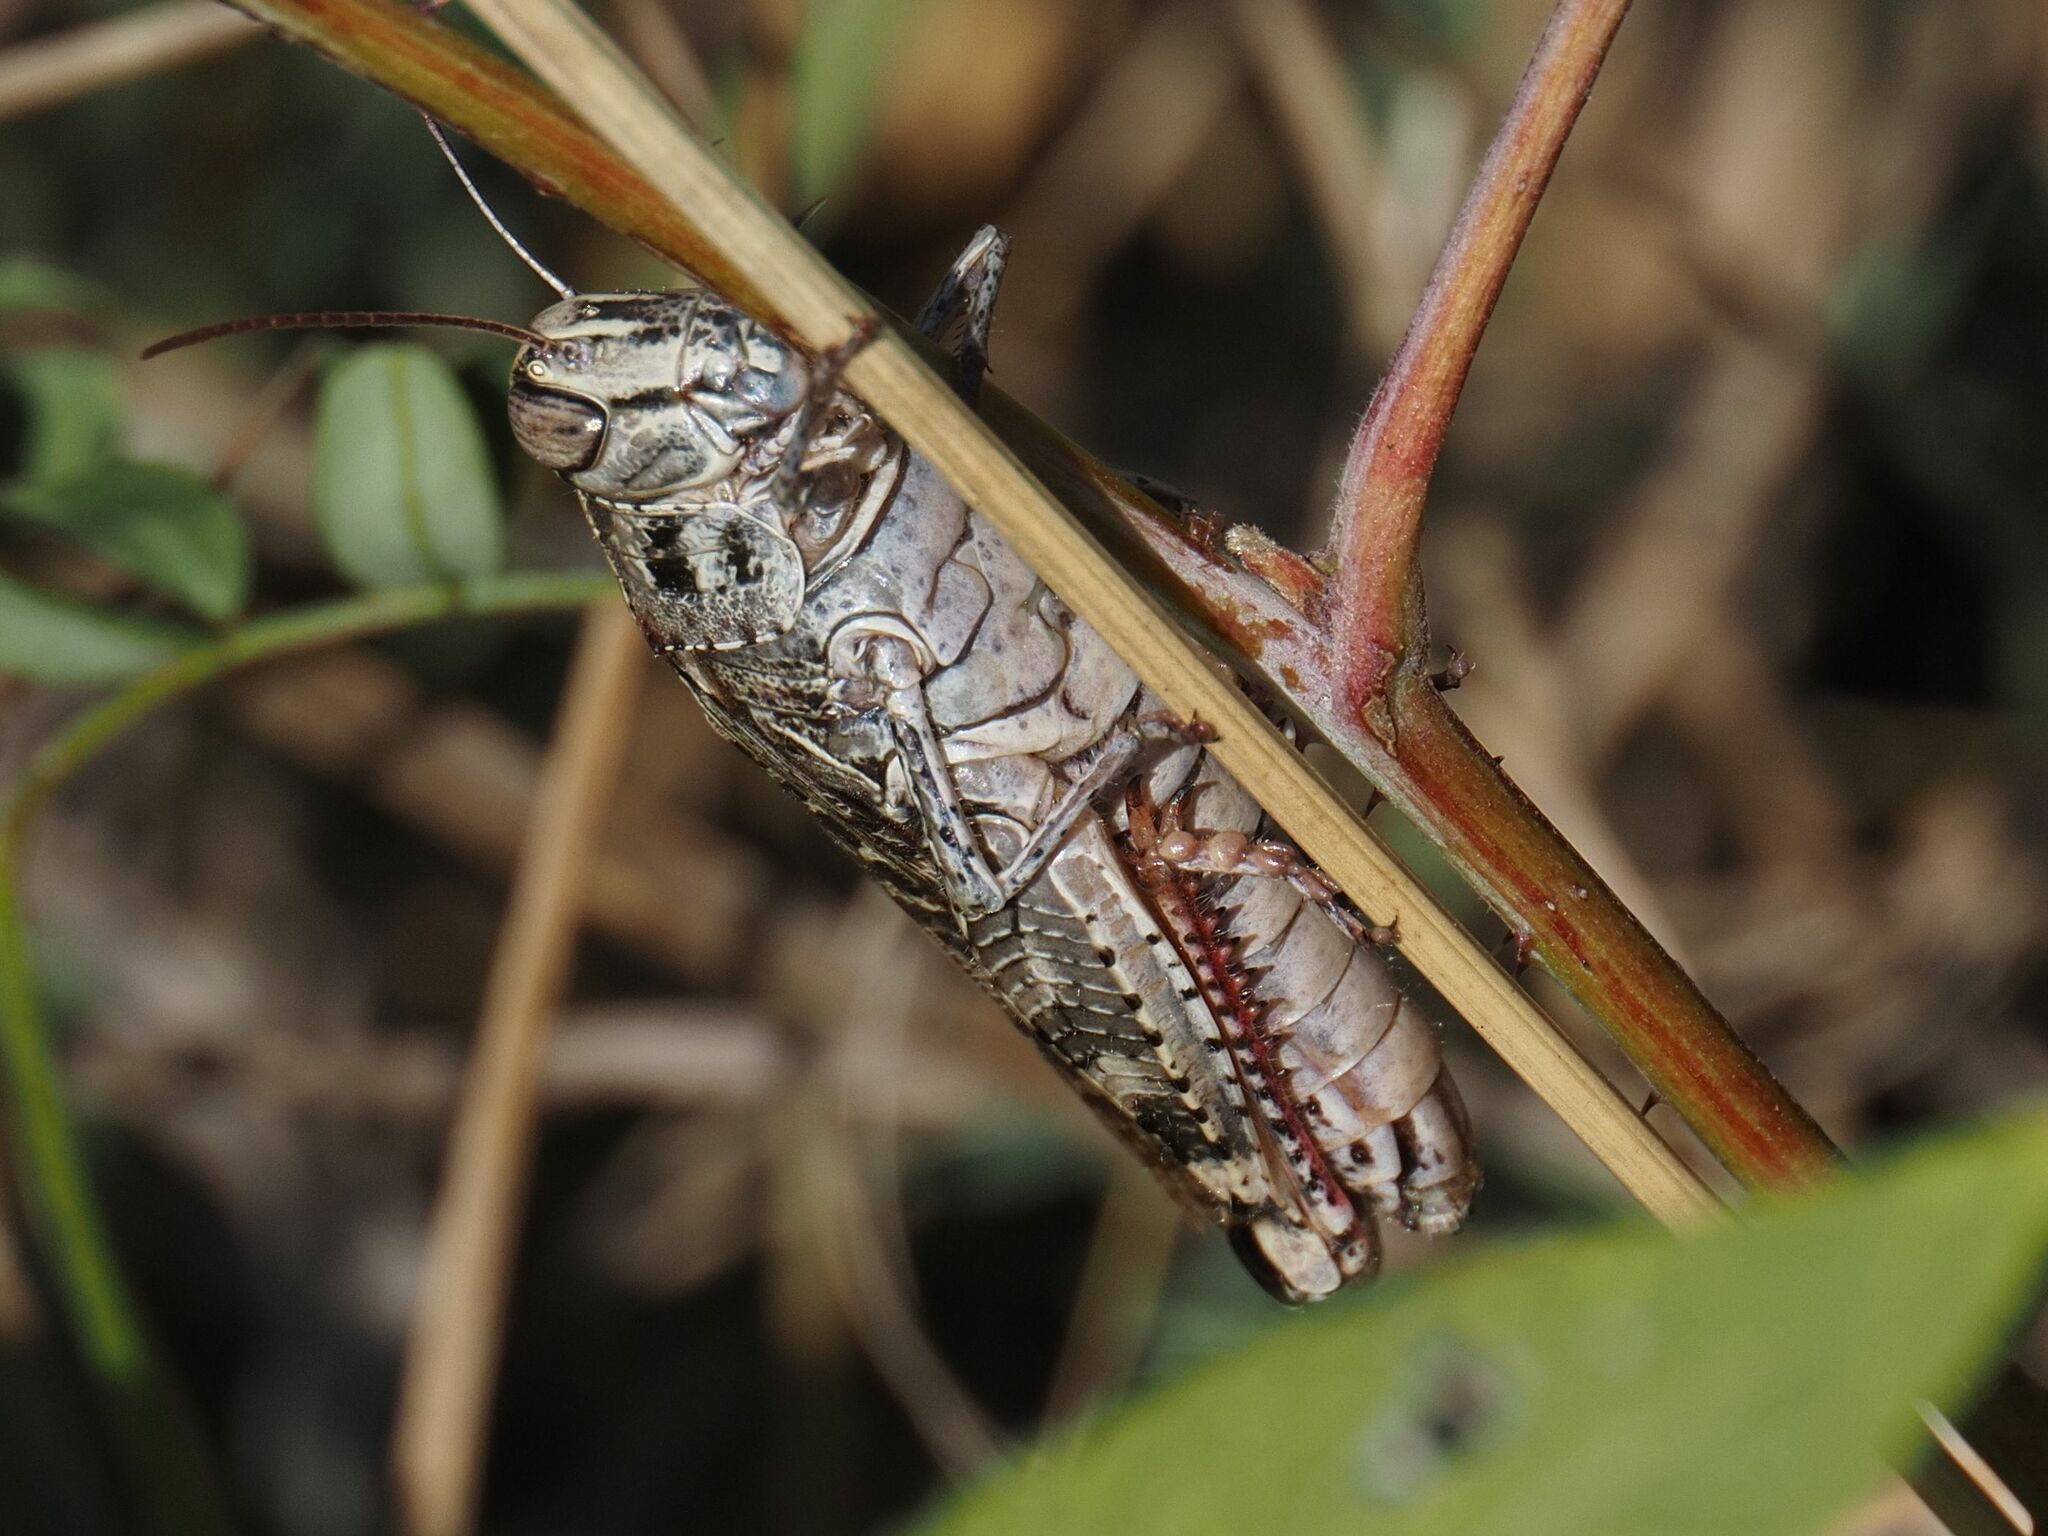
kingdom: Animalia
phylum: Arthropoda
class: Insecta
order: Orthoptera
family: Acrididae
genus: Calliptamus
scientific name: Calliptamus italicus
